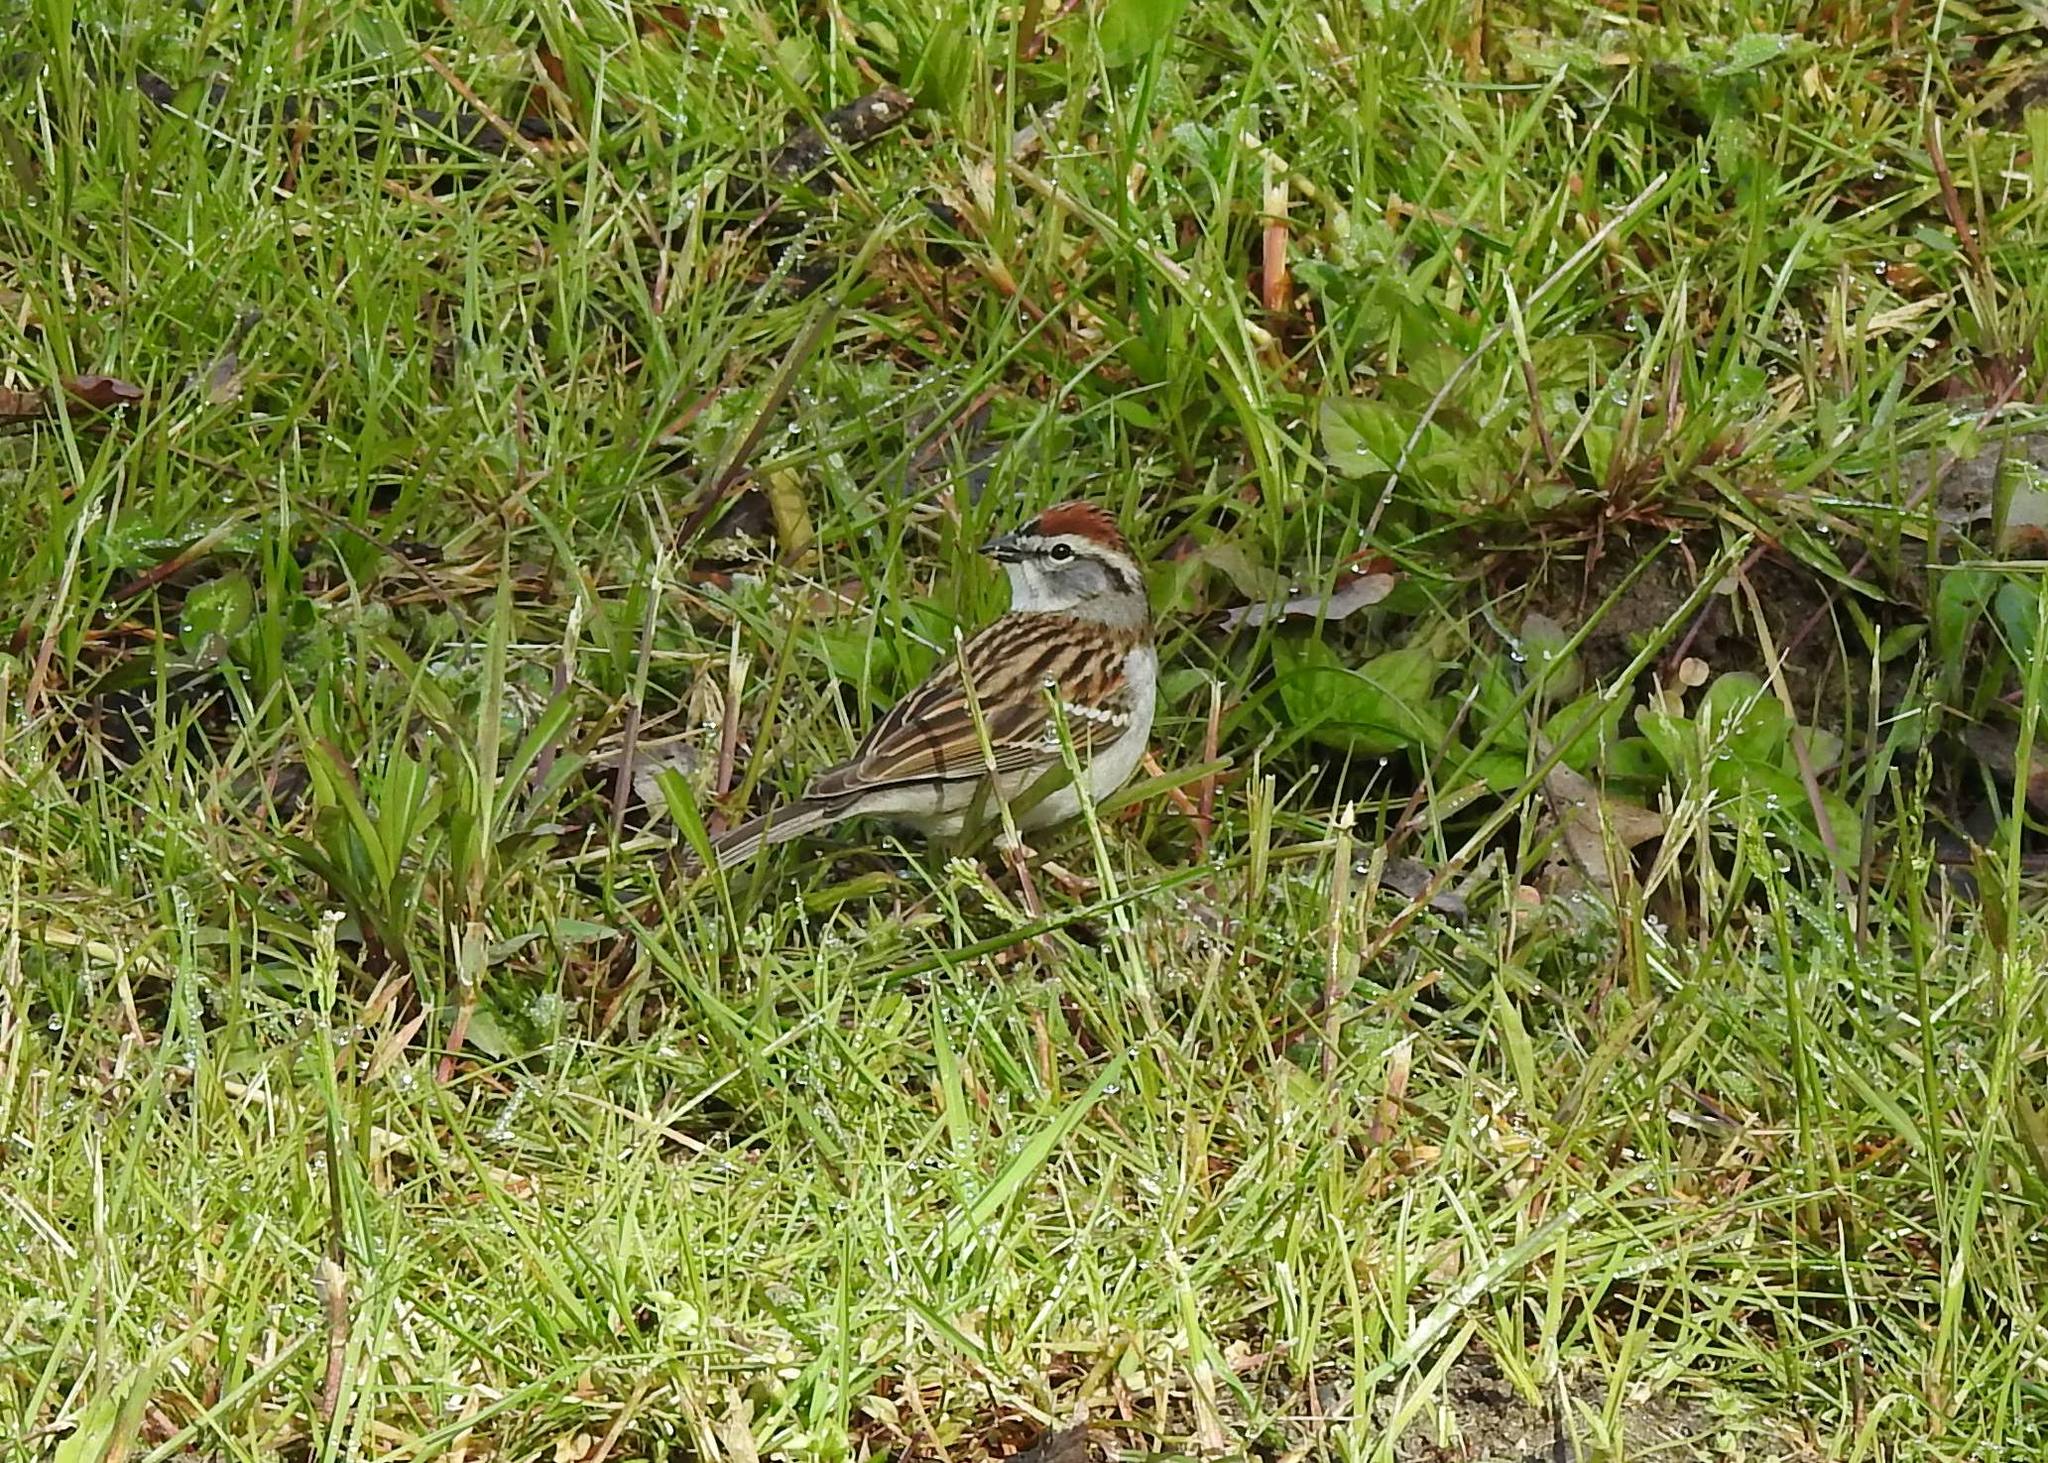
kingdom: Animalia
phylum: Chordata
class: Aves
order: Passeriformes
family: Passerellidae
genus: Spizella
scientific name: Spizella passerina
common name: Chipping sparrow
